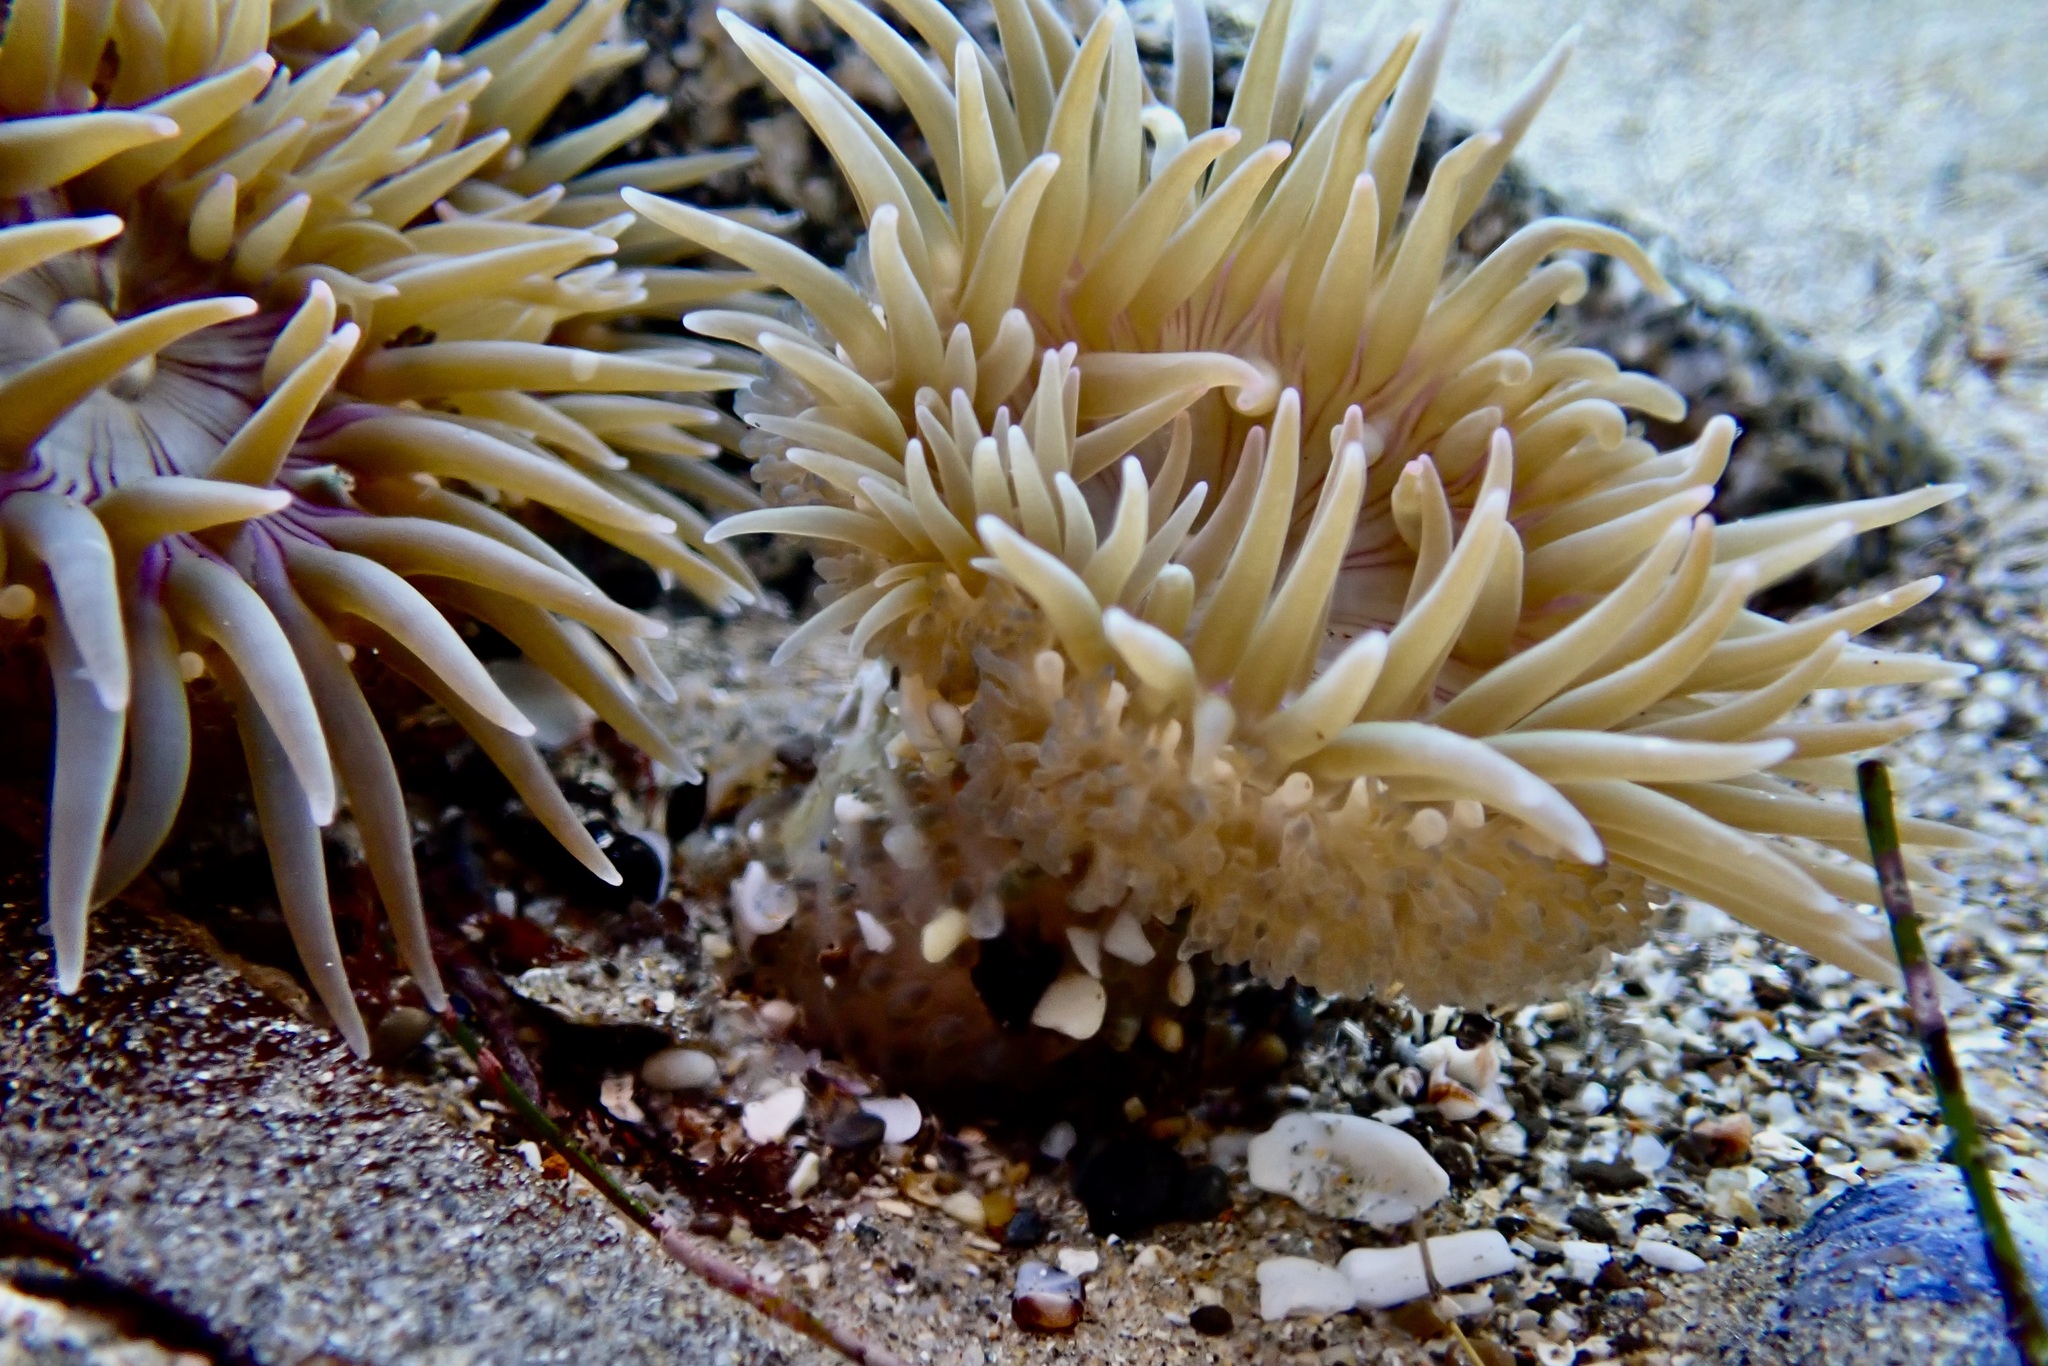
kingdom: Animalia
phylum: Cnidaria
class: Anthozoa
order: Actiniaria
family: Actiniidae
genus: Anthopleura
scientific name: Anthopleura elegantissima
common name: Clonal anemone
